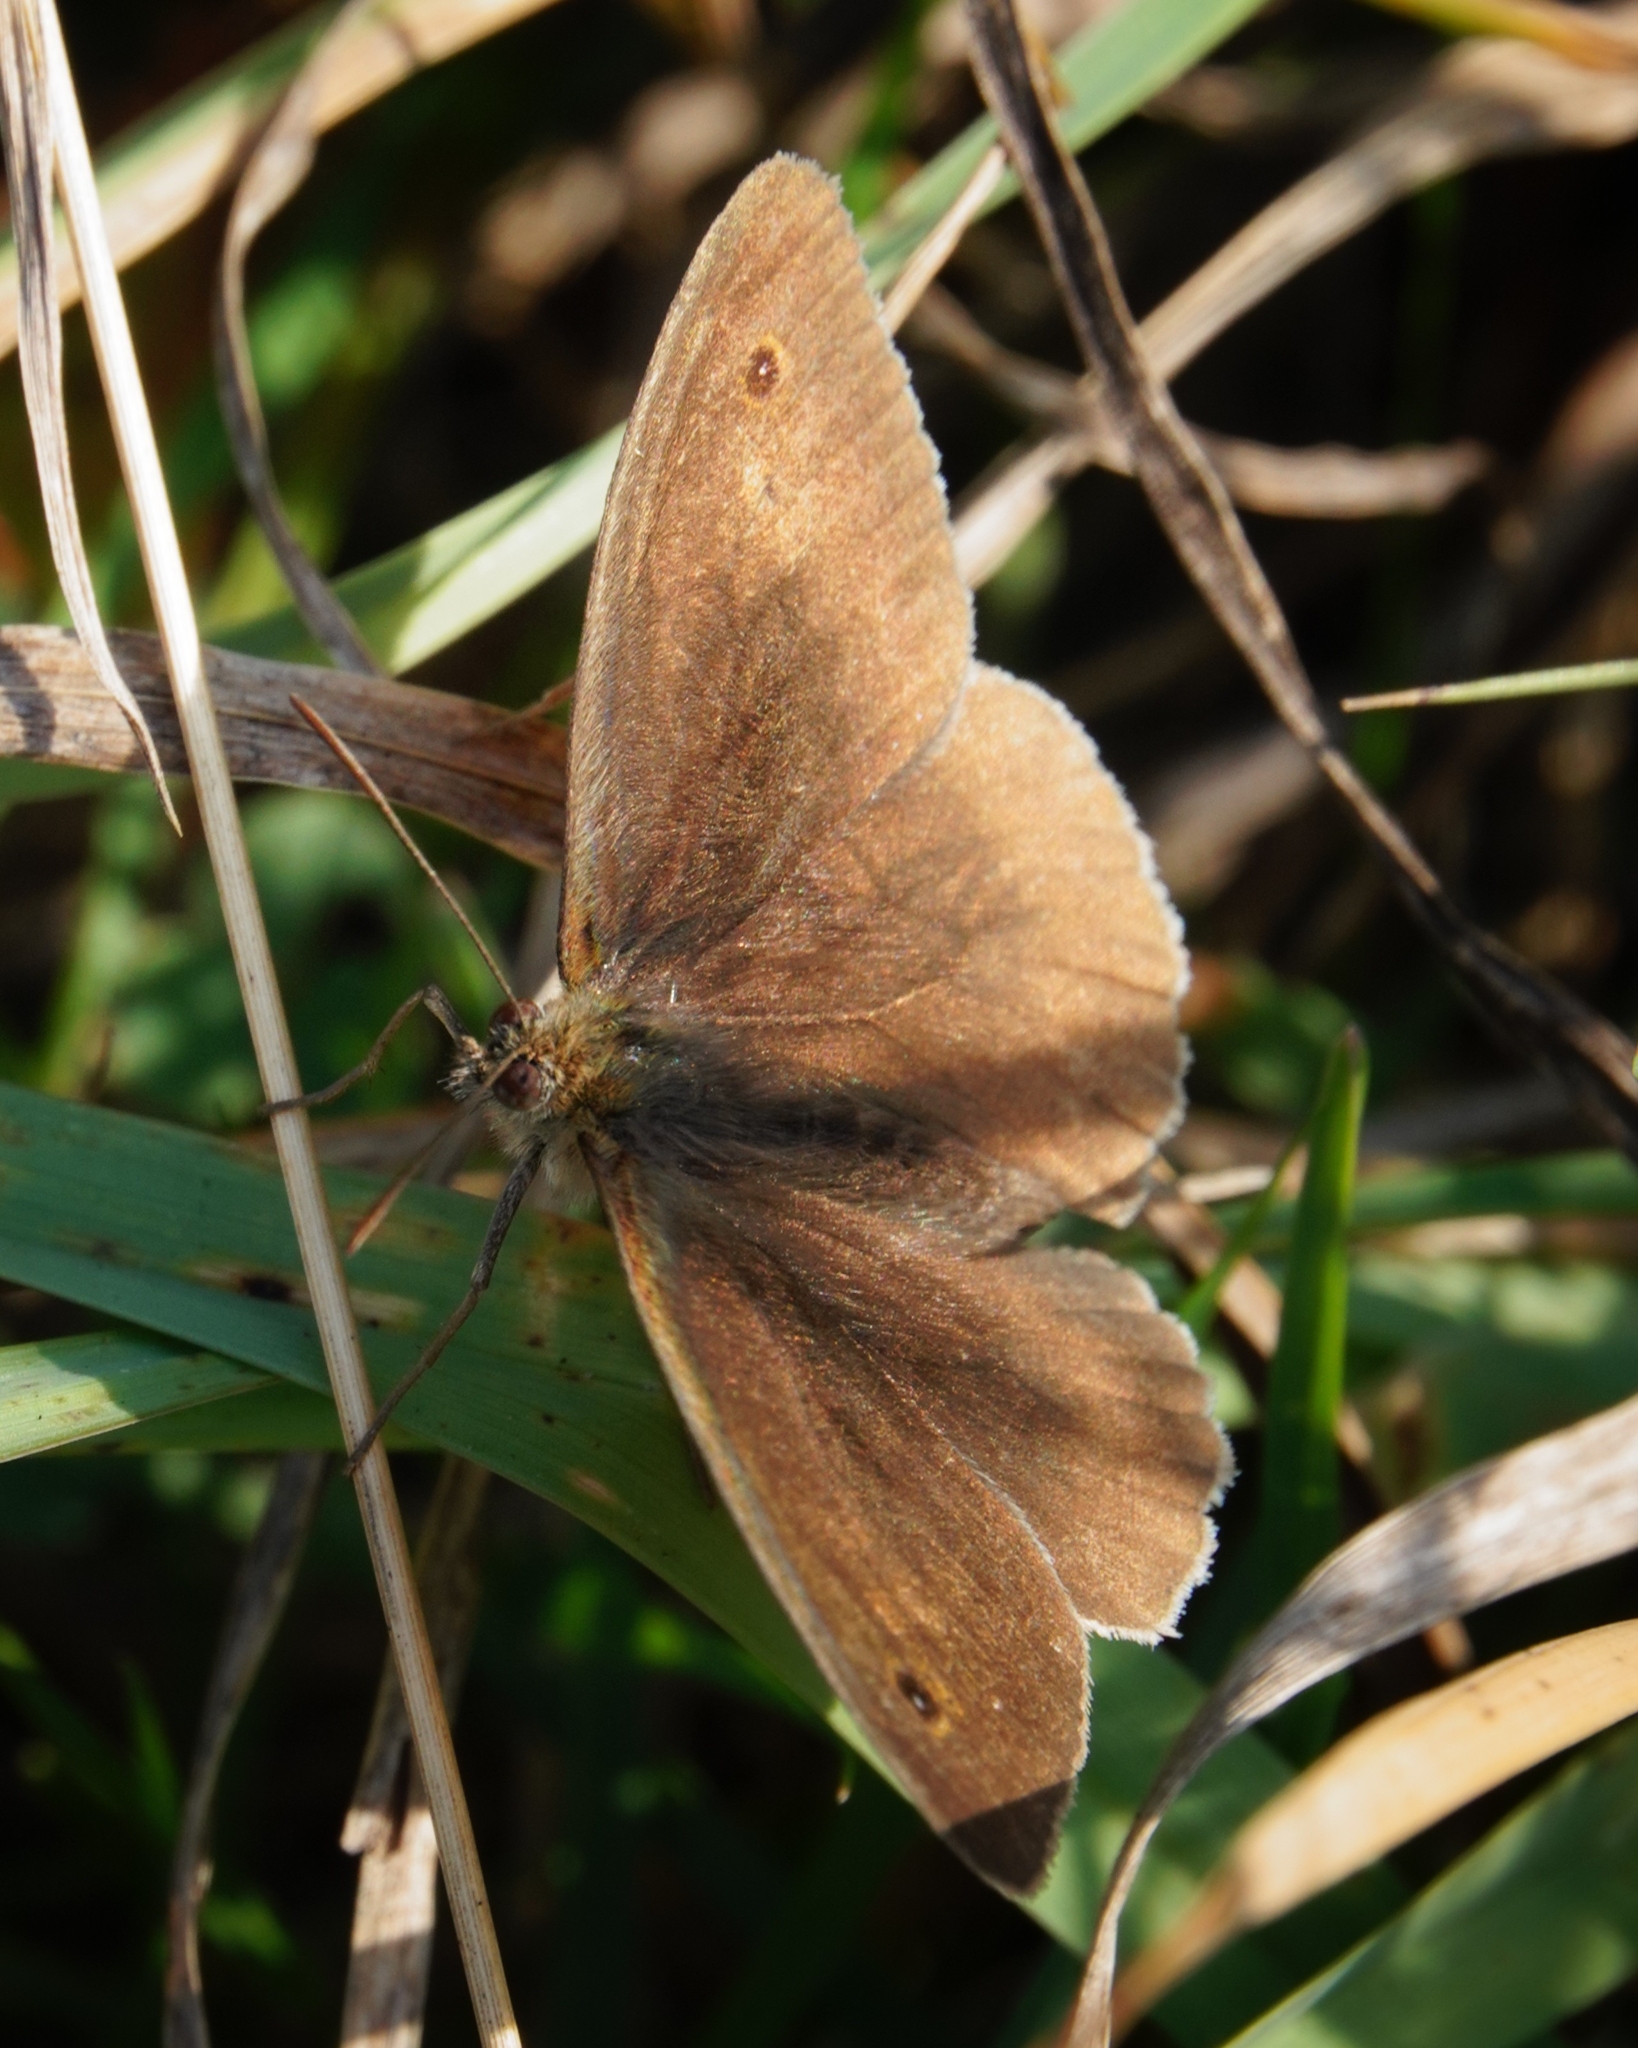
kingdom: Animalia
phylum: Arthropoda
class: Insecta
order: Lepidoptera
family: Nymphalidae
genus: Maniola
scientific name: Maniola jurtina
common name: Meadow brown
